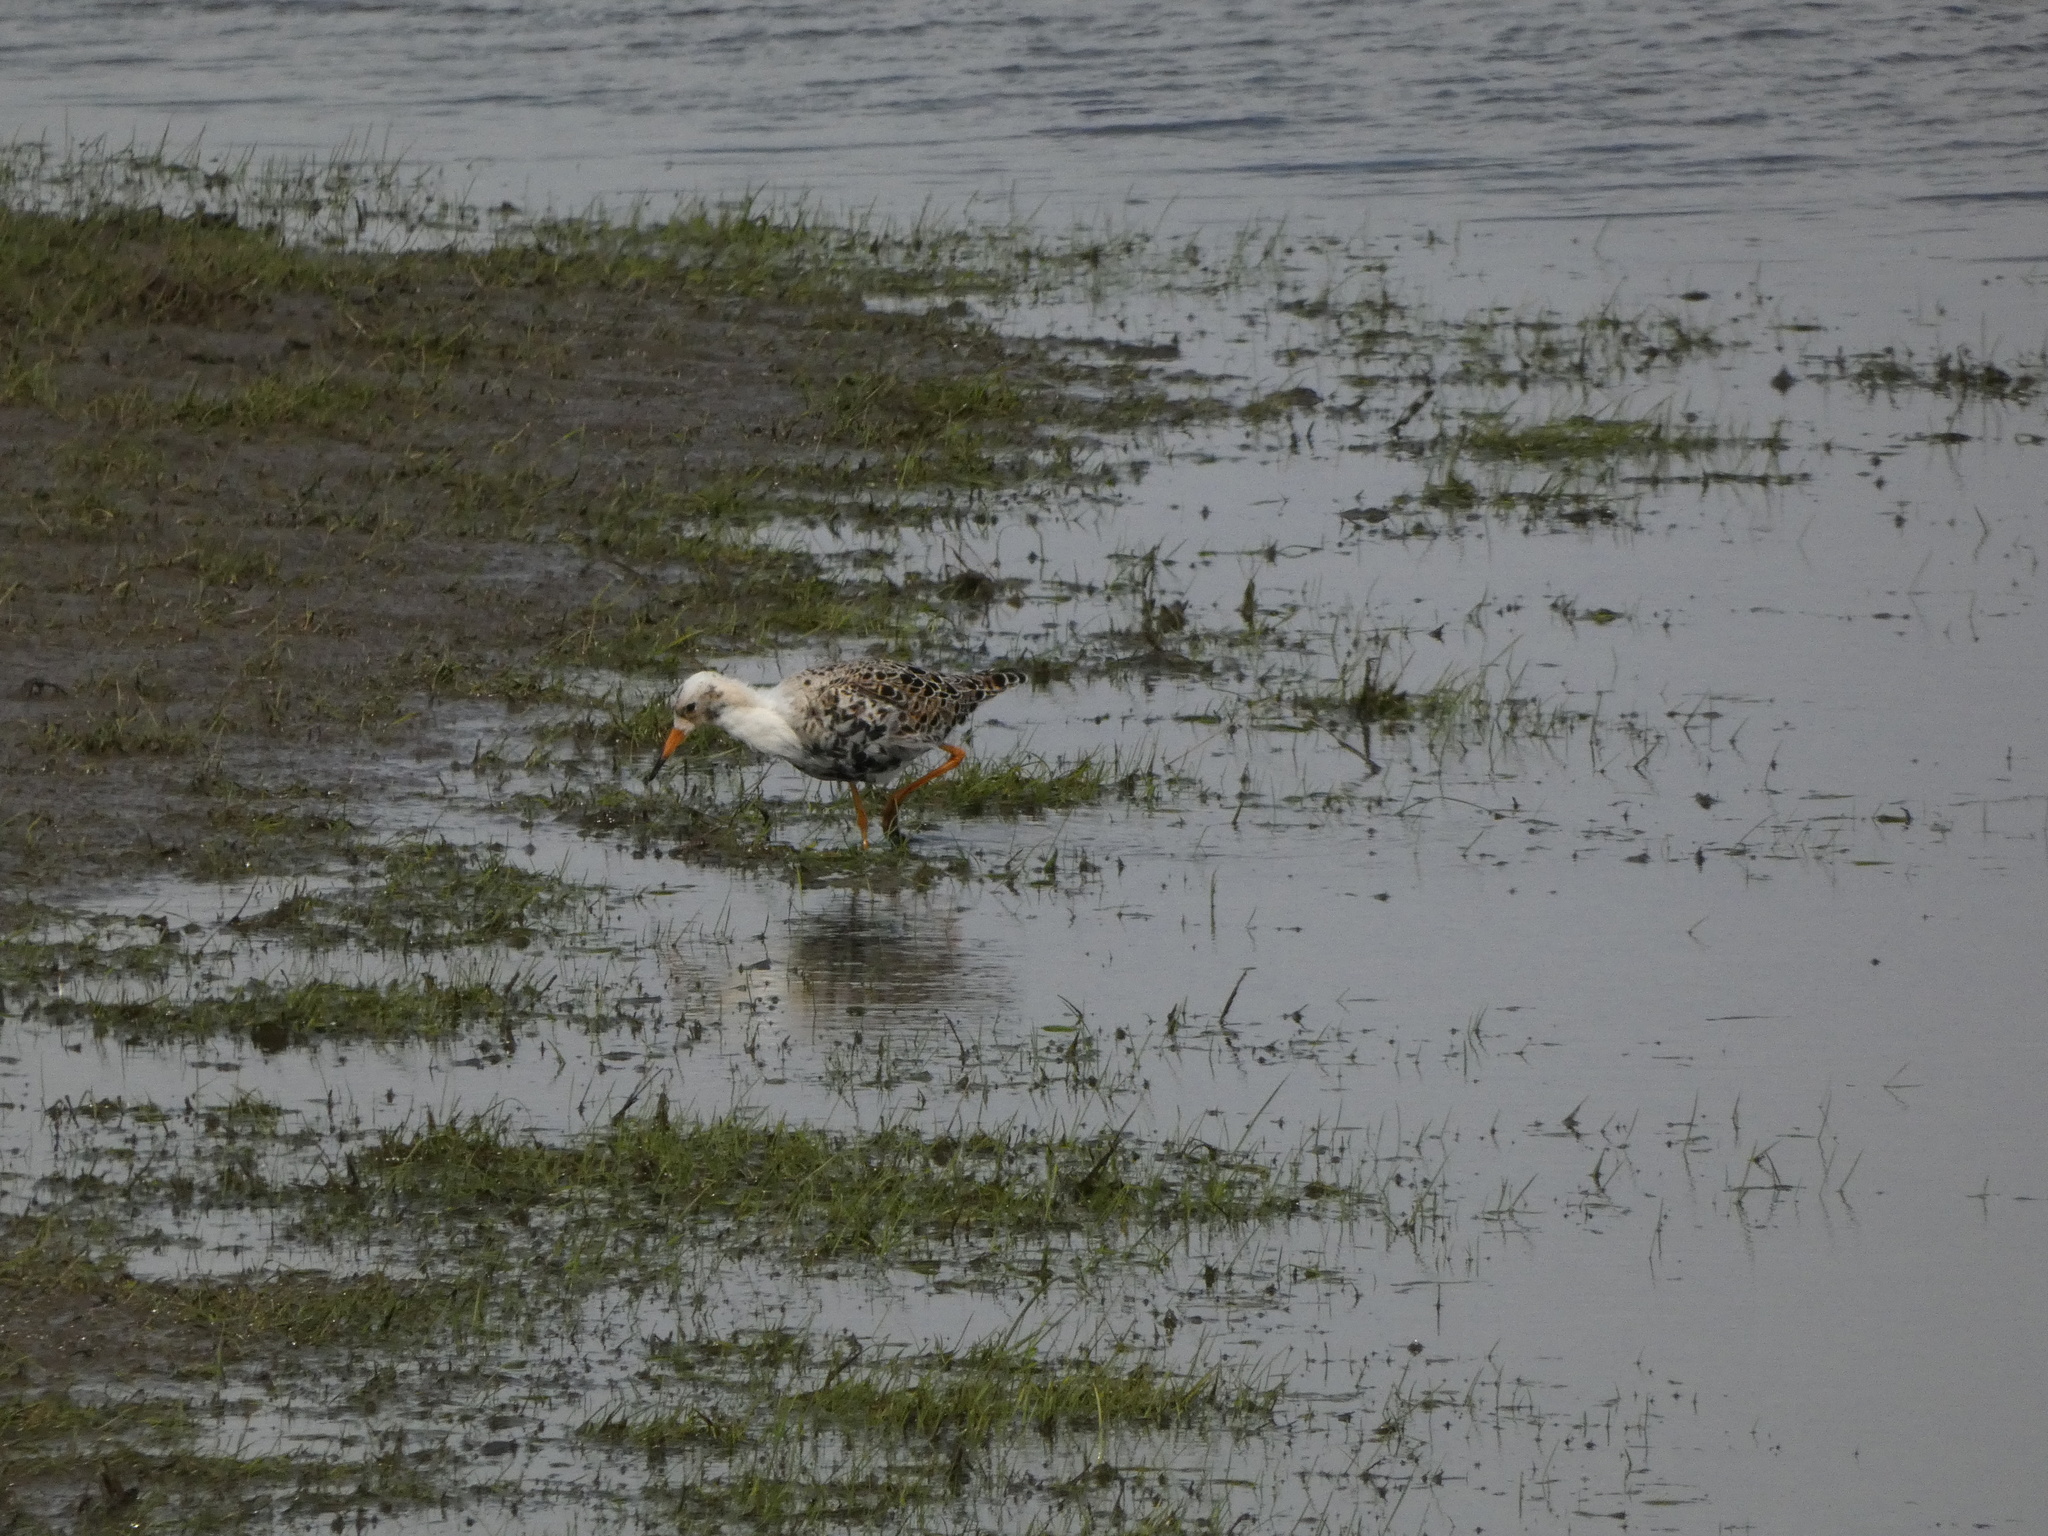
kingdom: Animalia
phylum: Chordata
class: Aves
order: Charadriiformes
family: Scolopacidae
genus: Calidris
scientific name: Calidris pugnax
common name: Ruff
